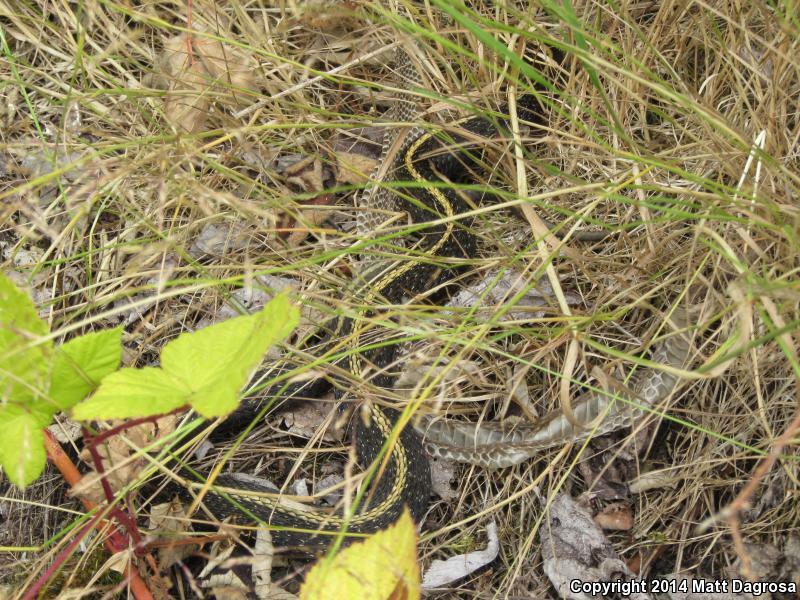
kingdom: Animalia
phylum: Chordata
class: Squamata
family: Colubridae
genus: Thamnophis
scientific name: Thamnophis ordinoides
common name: Northwestern garter snake
